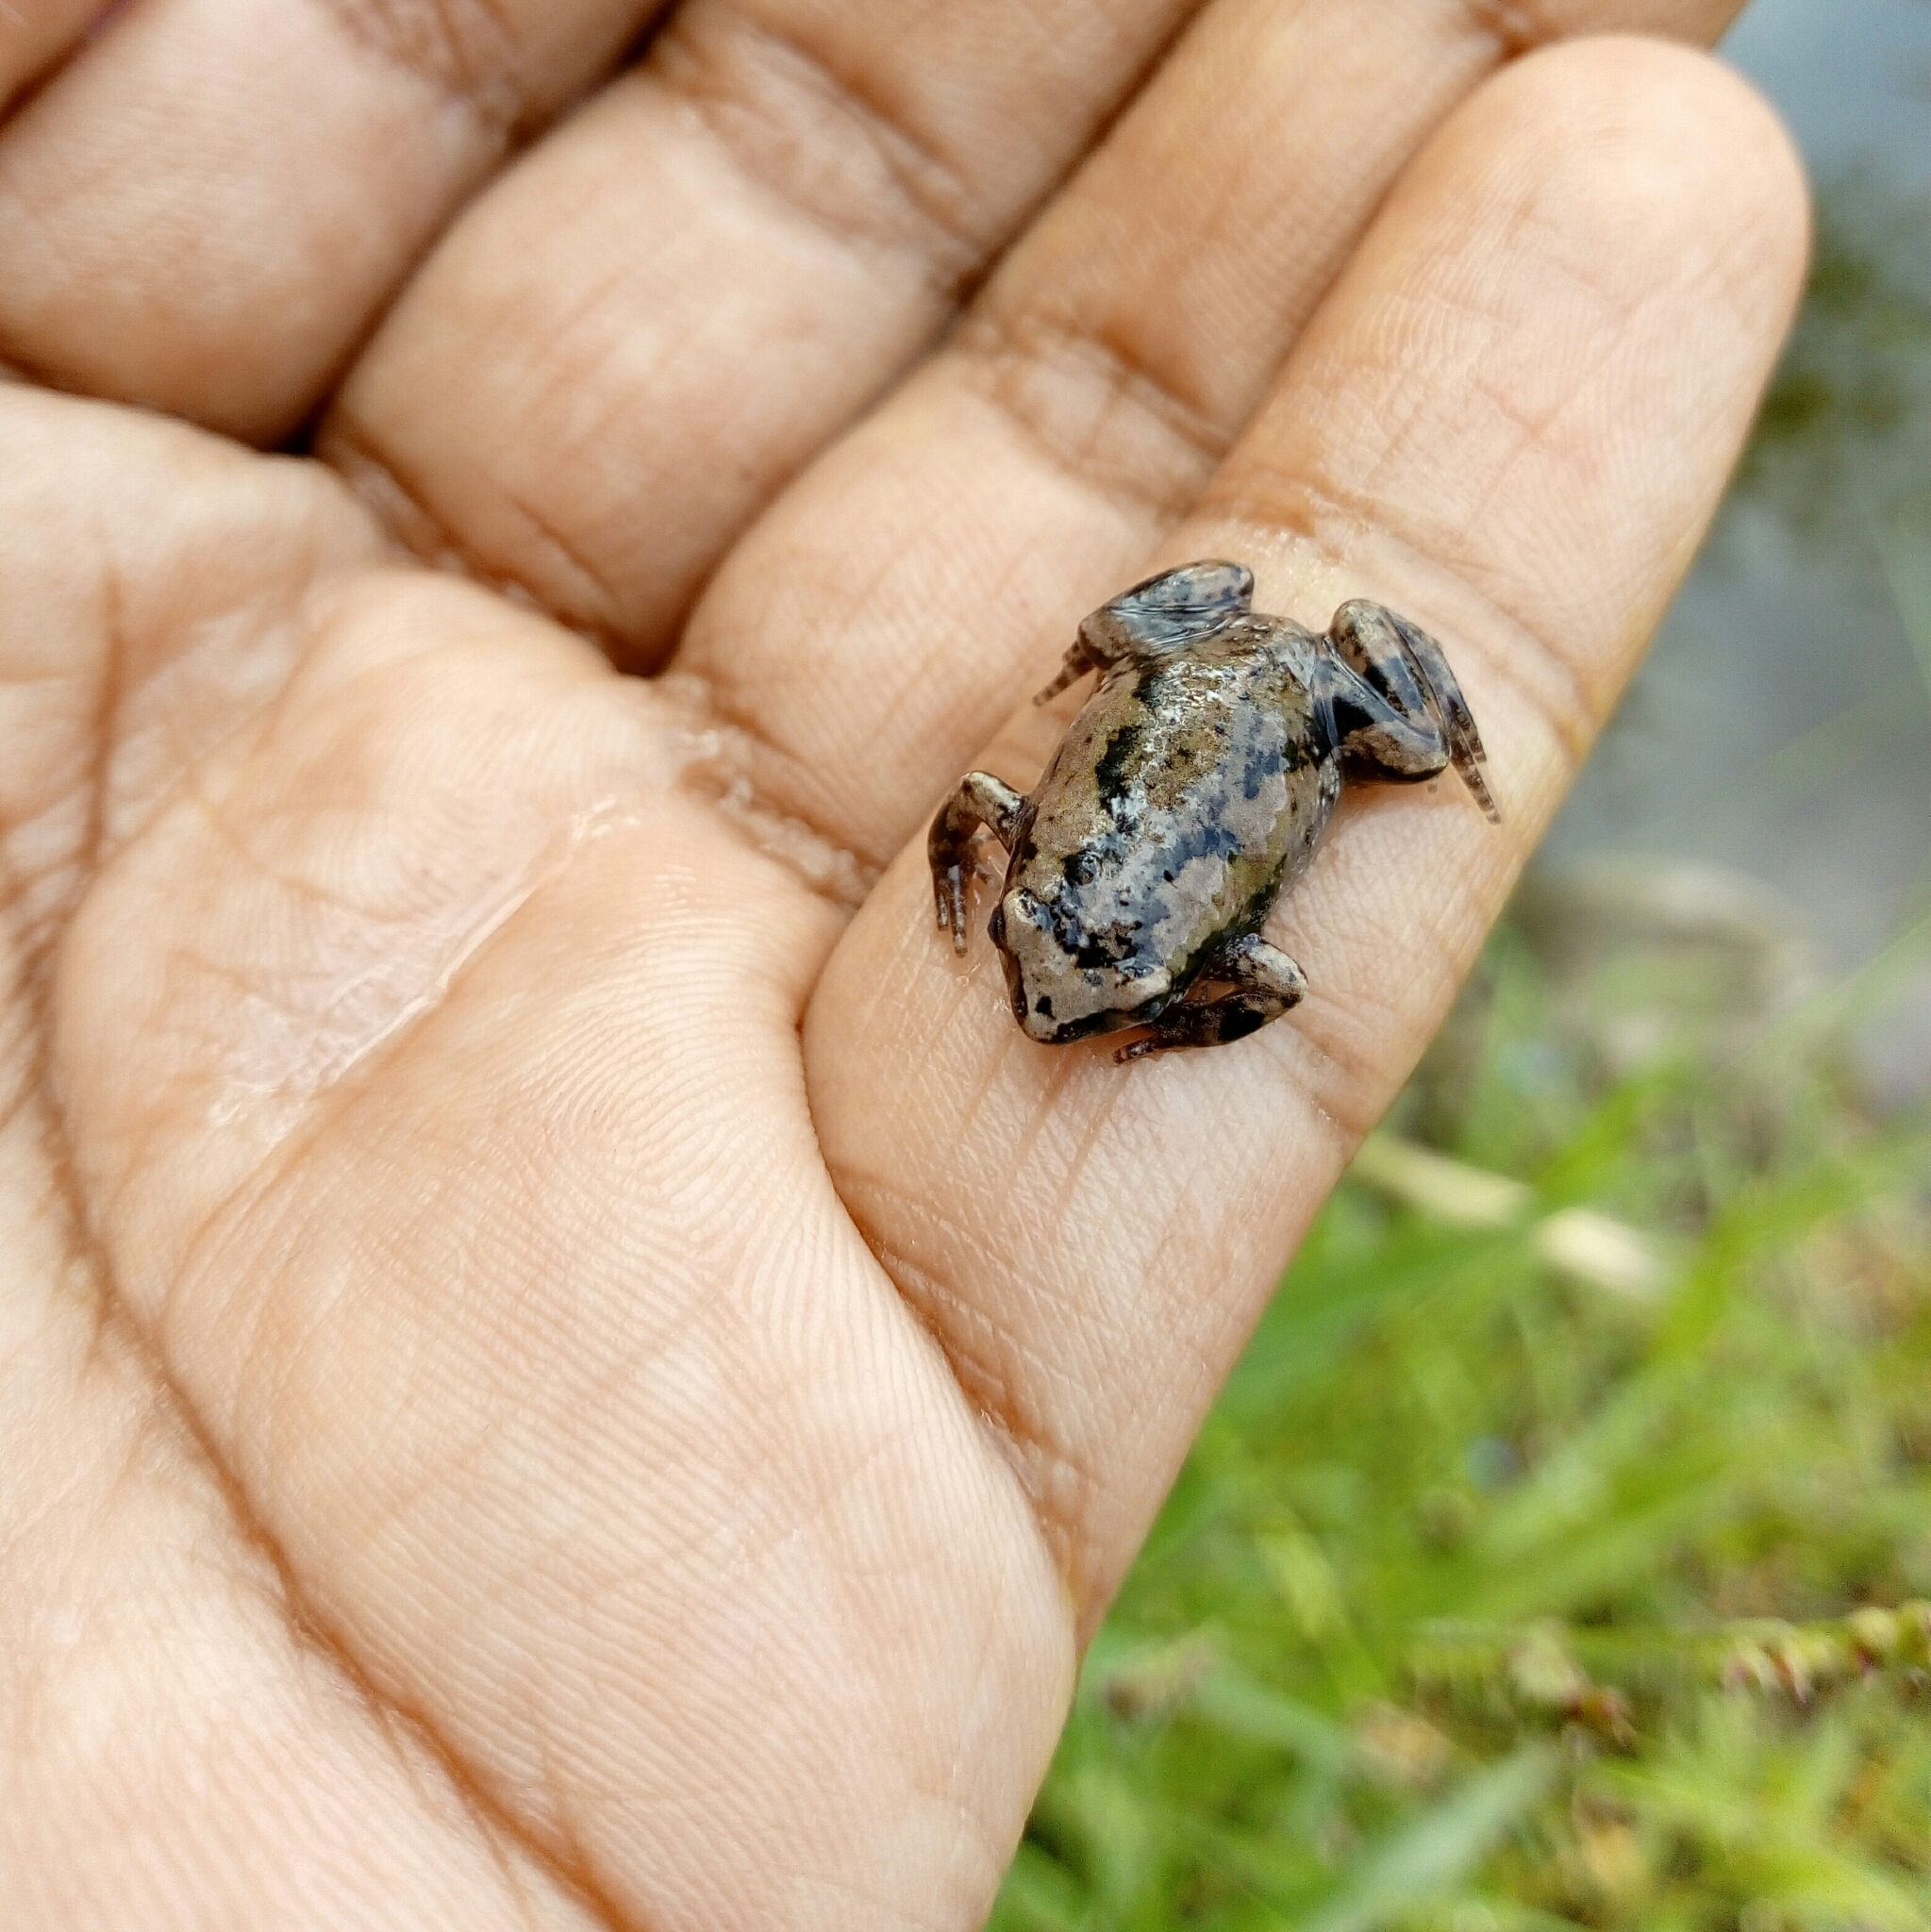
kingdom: Animalia
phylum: Chordata
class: Amphibia
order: Anura
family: Microhylidae
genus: Hypopachus
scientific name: Hypopachus variolosus
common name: Sheep frog
